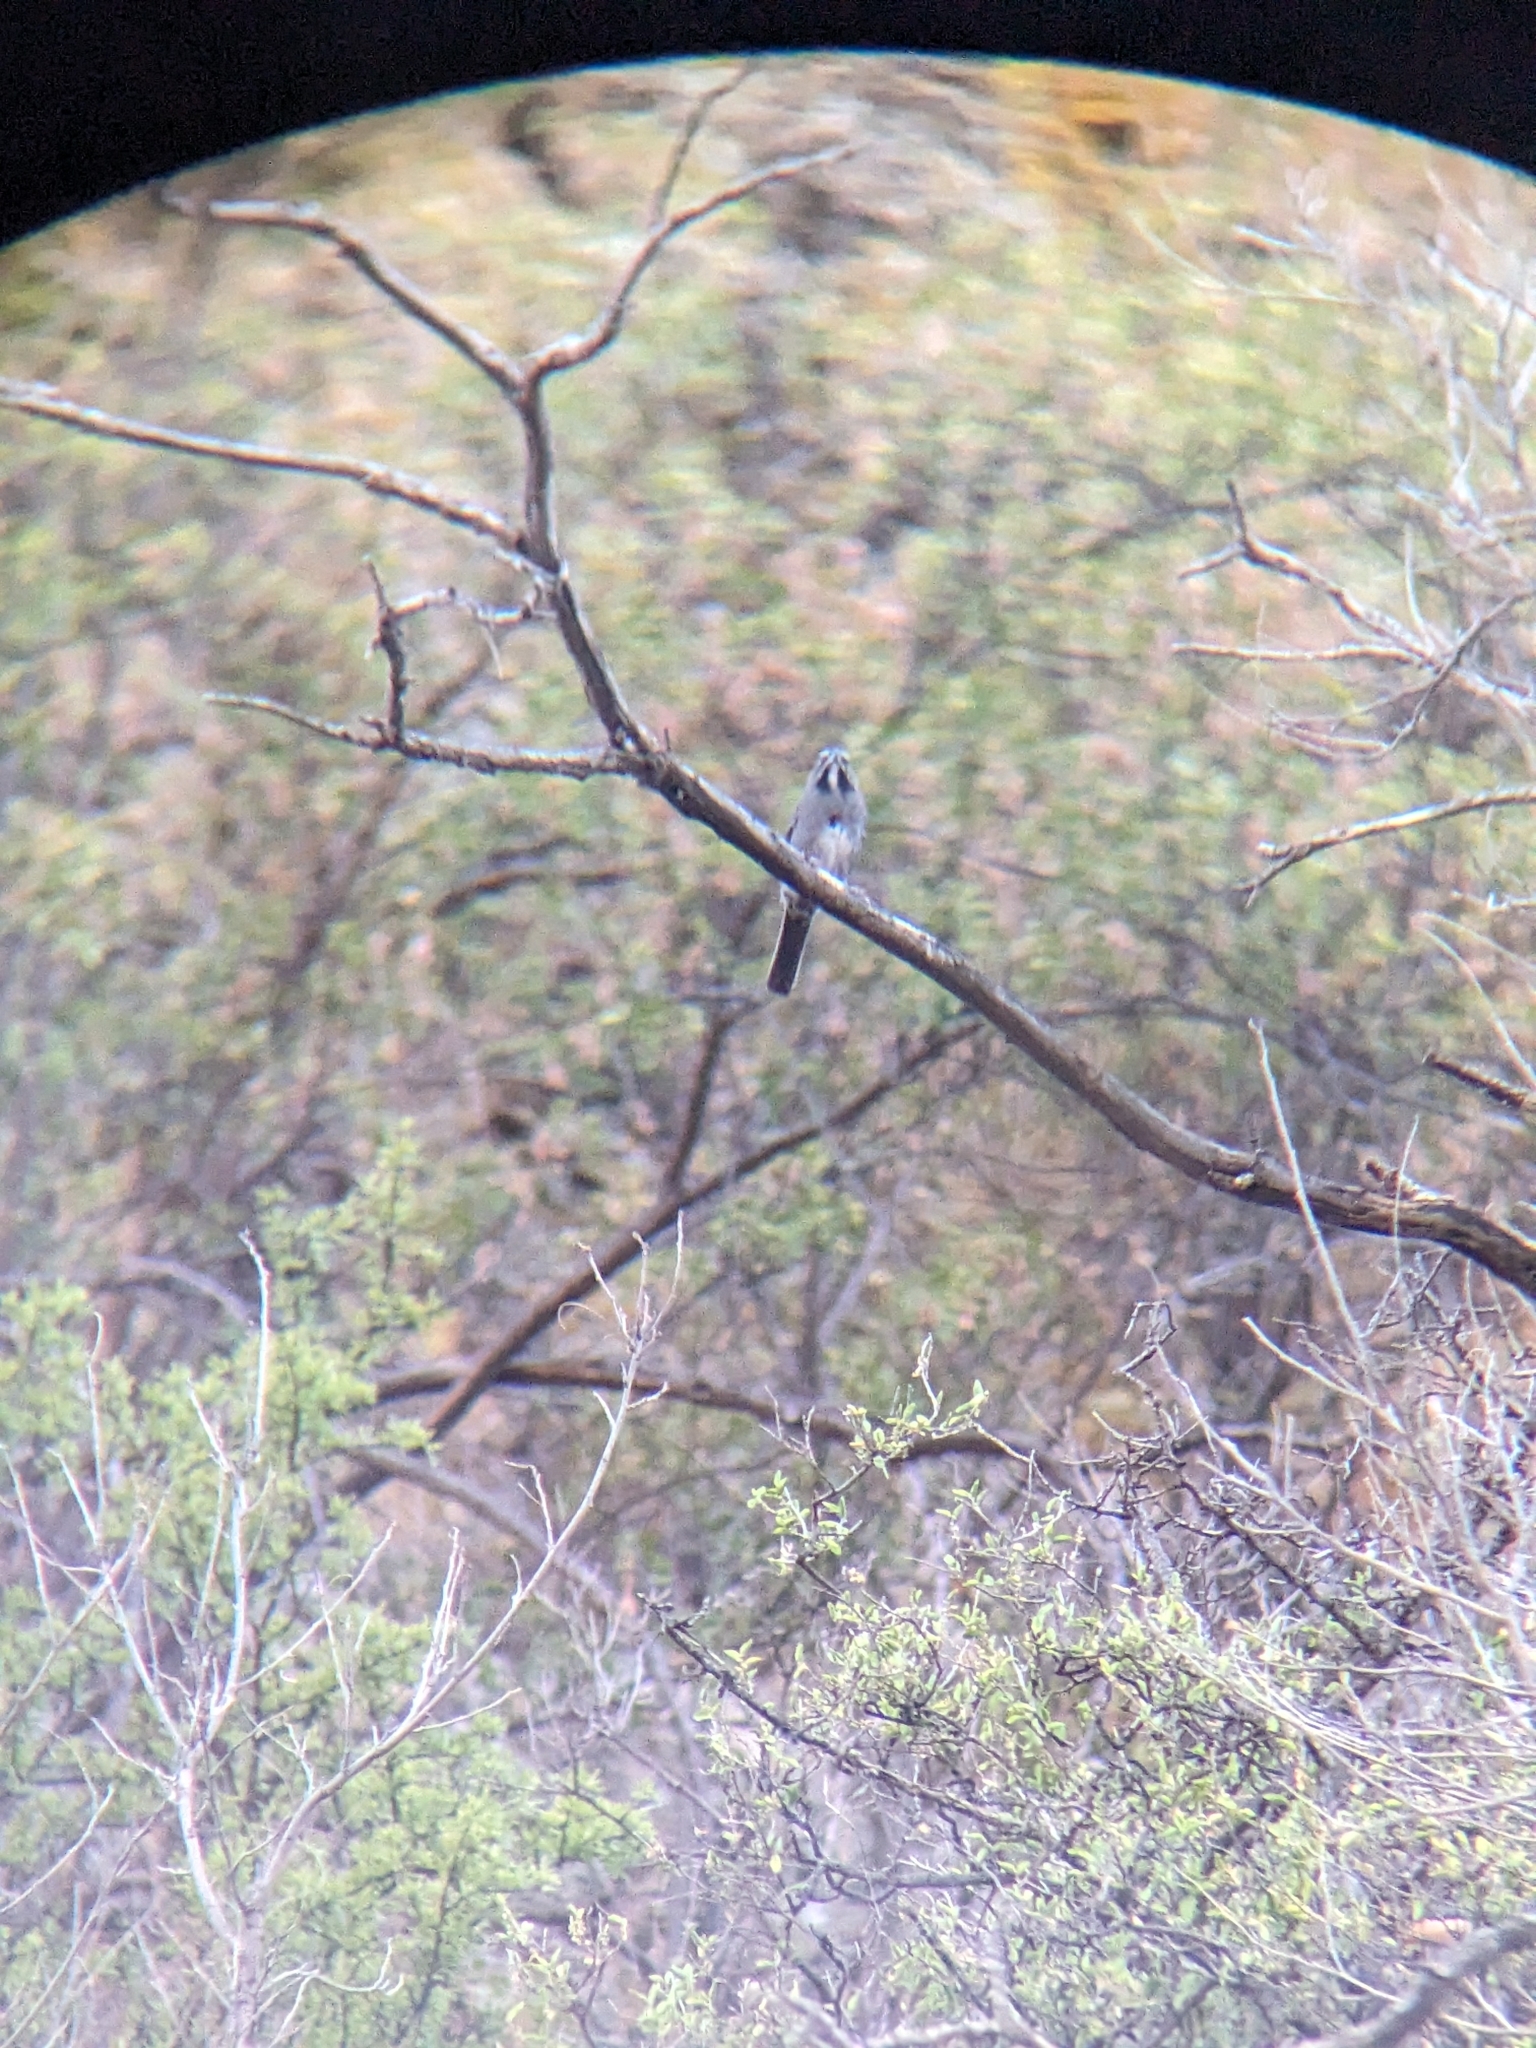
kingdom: Animalia
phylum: Chordata
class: Aves
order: Passeriformes
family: Passerellidae
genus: Amphispizopsis
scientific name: Amphispizopsis quinquestriata
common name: Five-striped sparrow
